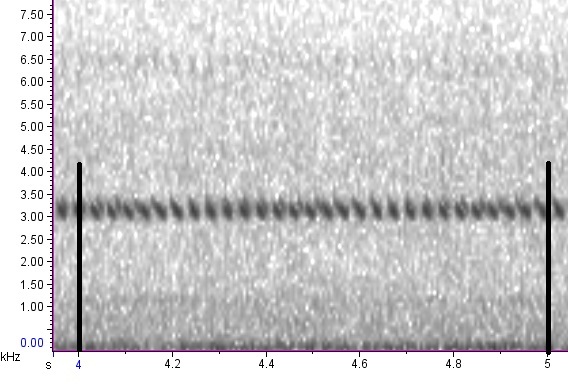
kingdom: Animalia
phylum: Arthropoda
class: Insecta
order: Orthoptera
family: Gryllidae
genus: Oecanthus
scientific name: Oecanthus latipennis
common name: Broad-winged tree cricket
